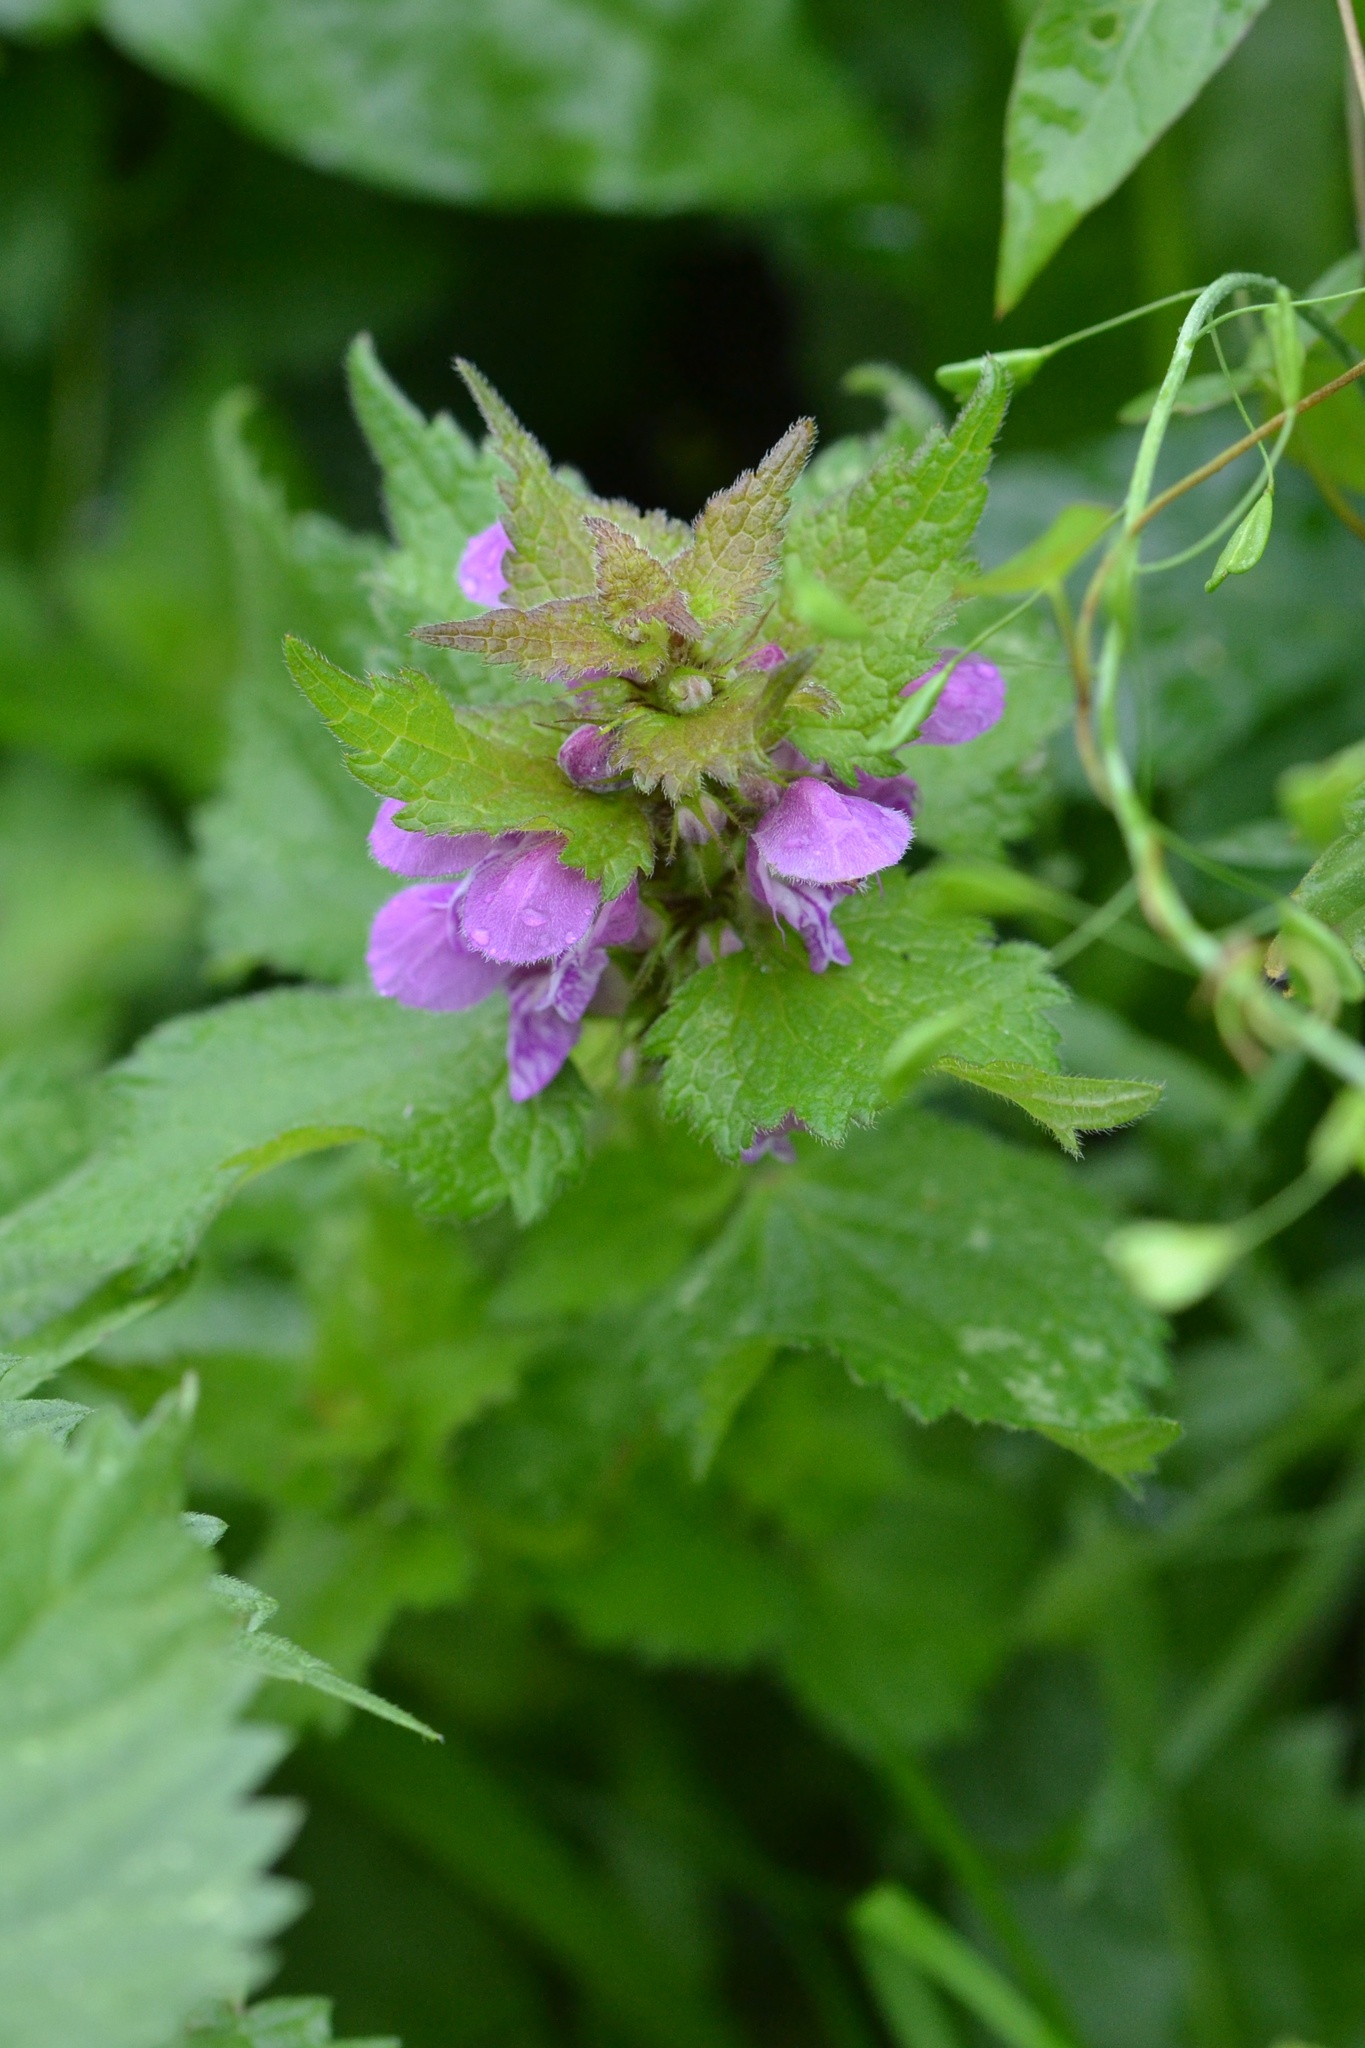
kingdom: Plantae
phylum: Tracheophyta
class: Magnoliopsida
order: Lamiales
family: Lamiaceae
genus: Lamium
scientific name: Lamium maculatum
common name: Spotted dead-nettle
